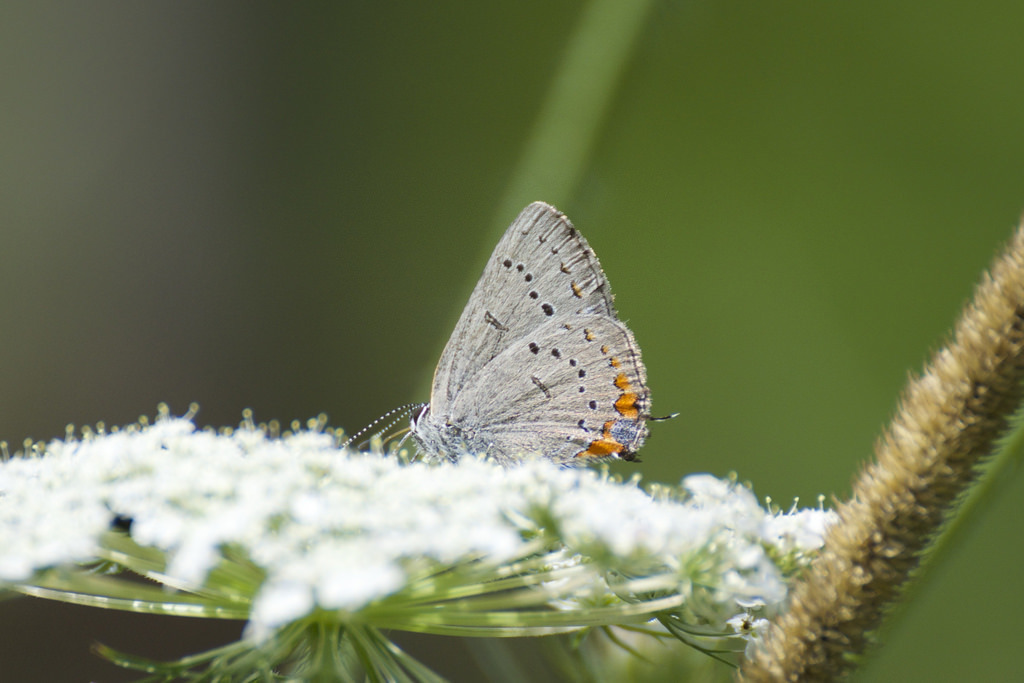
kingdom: Animalia
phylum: Arthropoda
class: Insecta
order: Lepidoptera
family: Lycaenidae
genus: Strymon
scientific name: Strymon acadica
